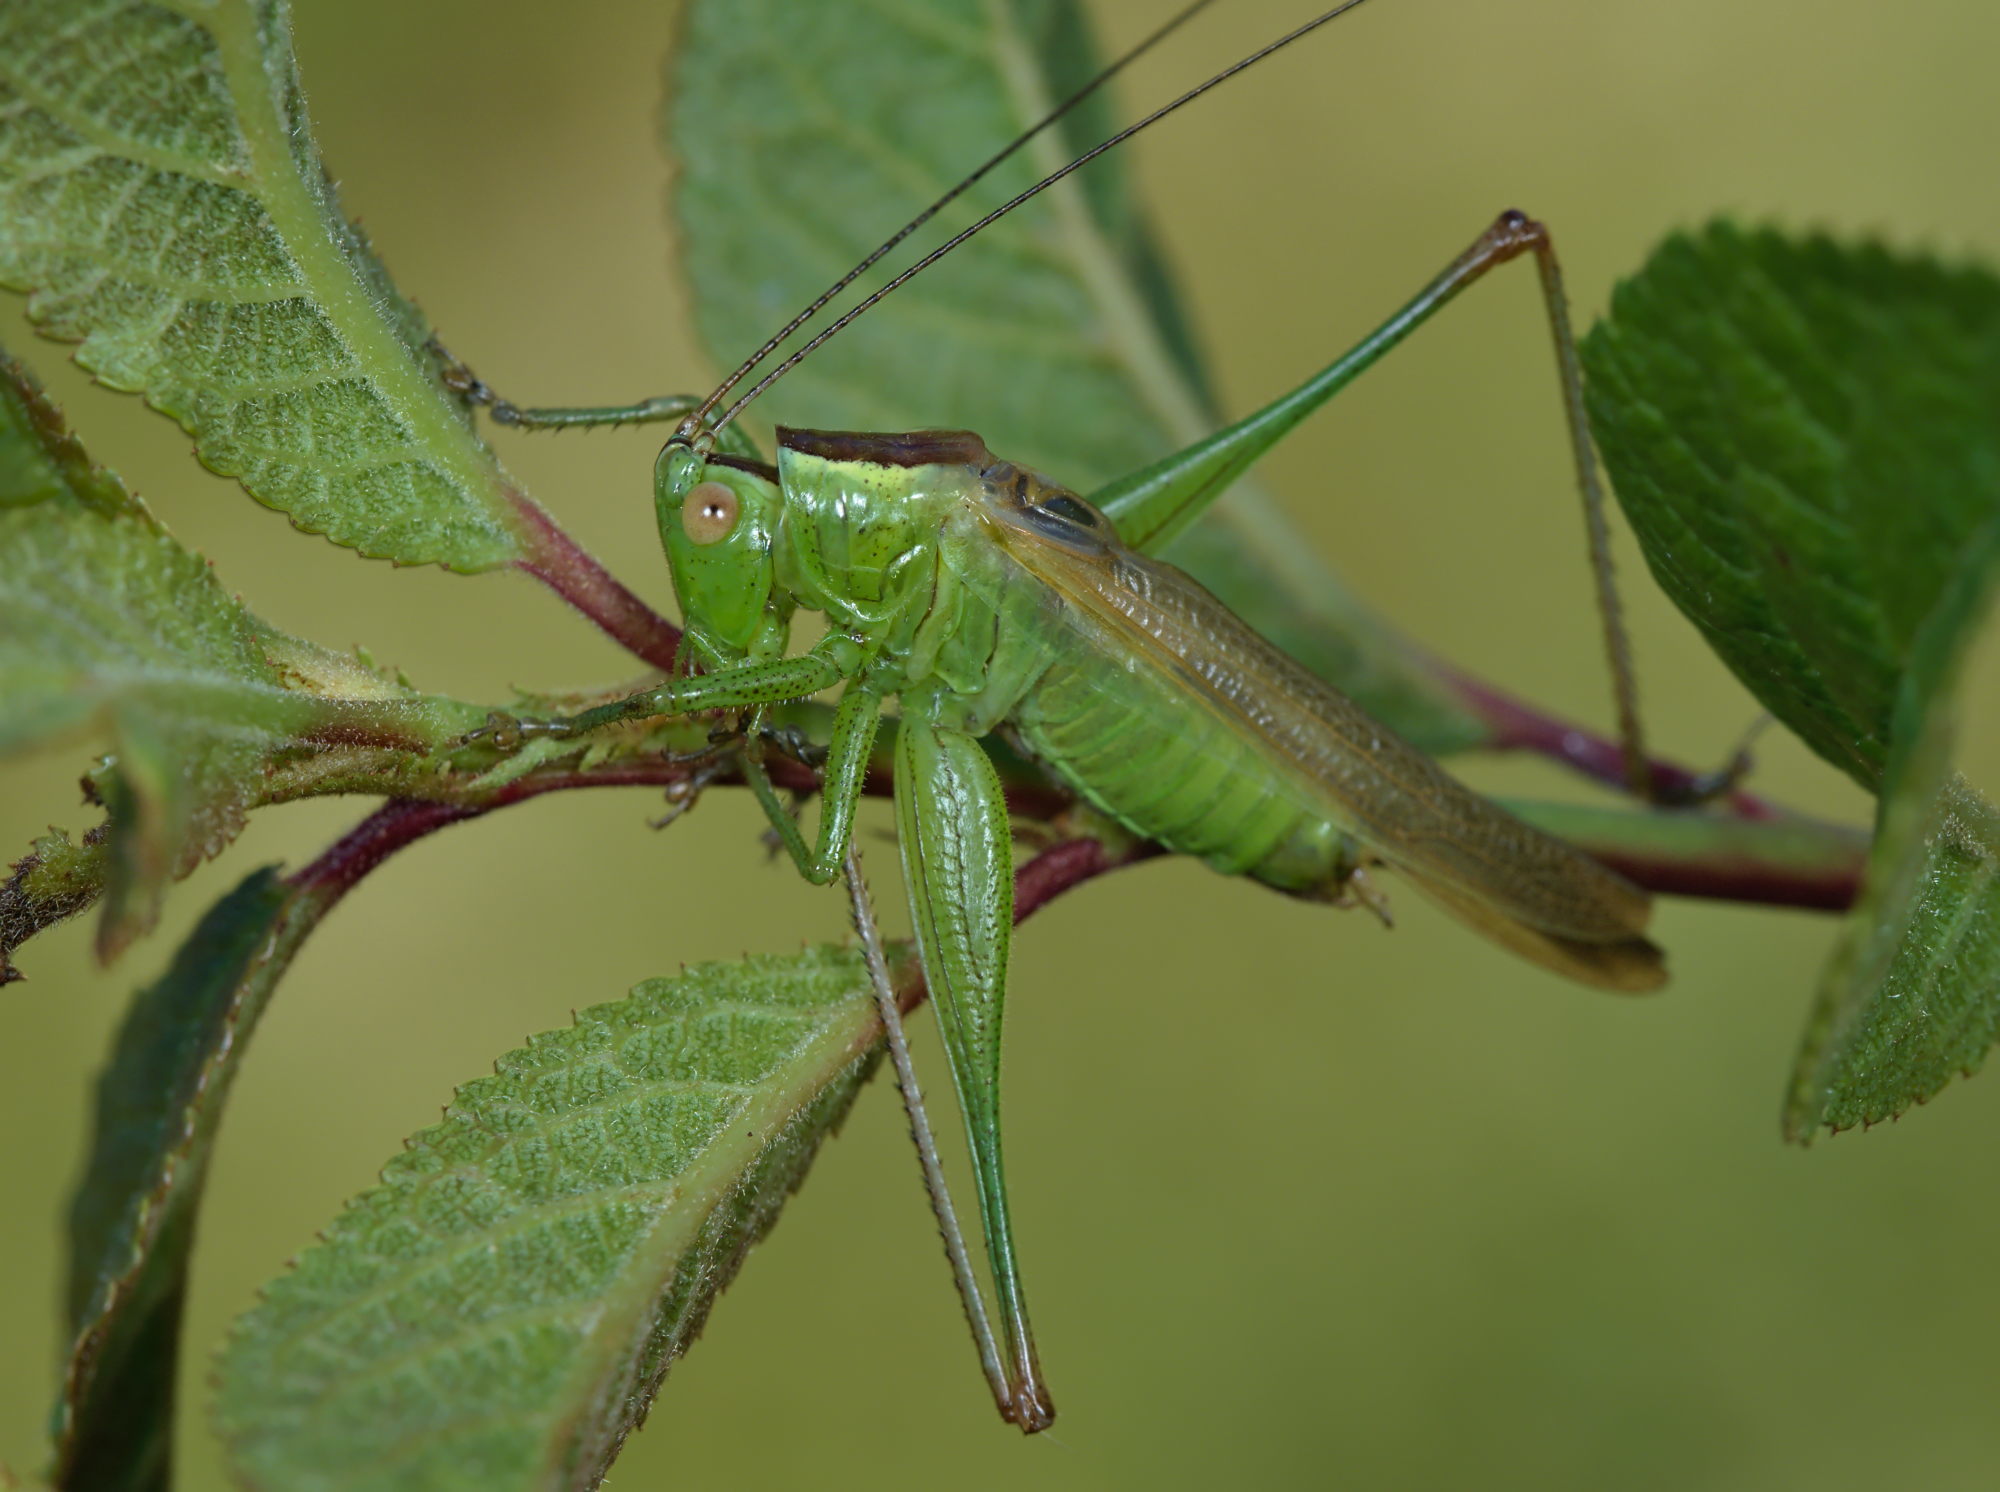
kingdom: Animalia
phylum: Arthropoda
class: Insecta
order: Orthoptera
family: Tettigoniidae
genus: Conocephalus
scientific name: Conocephalus fuscus
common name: Long-winged conehead
